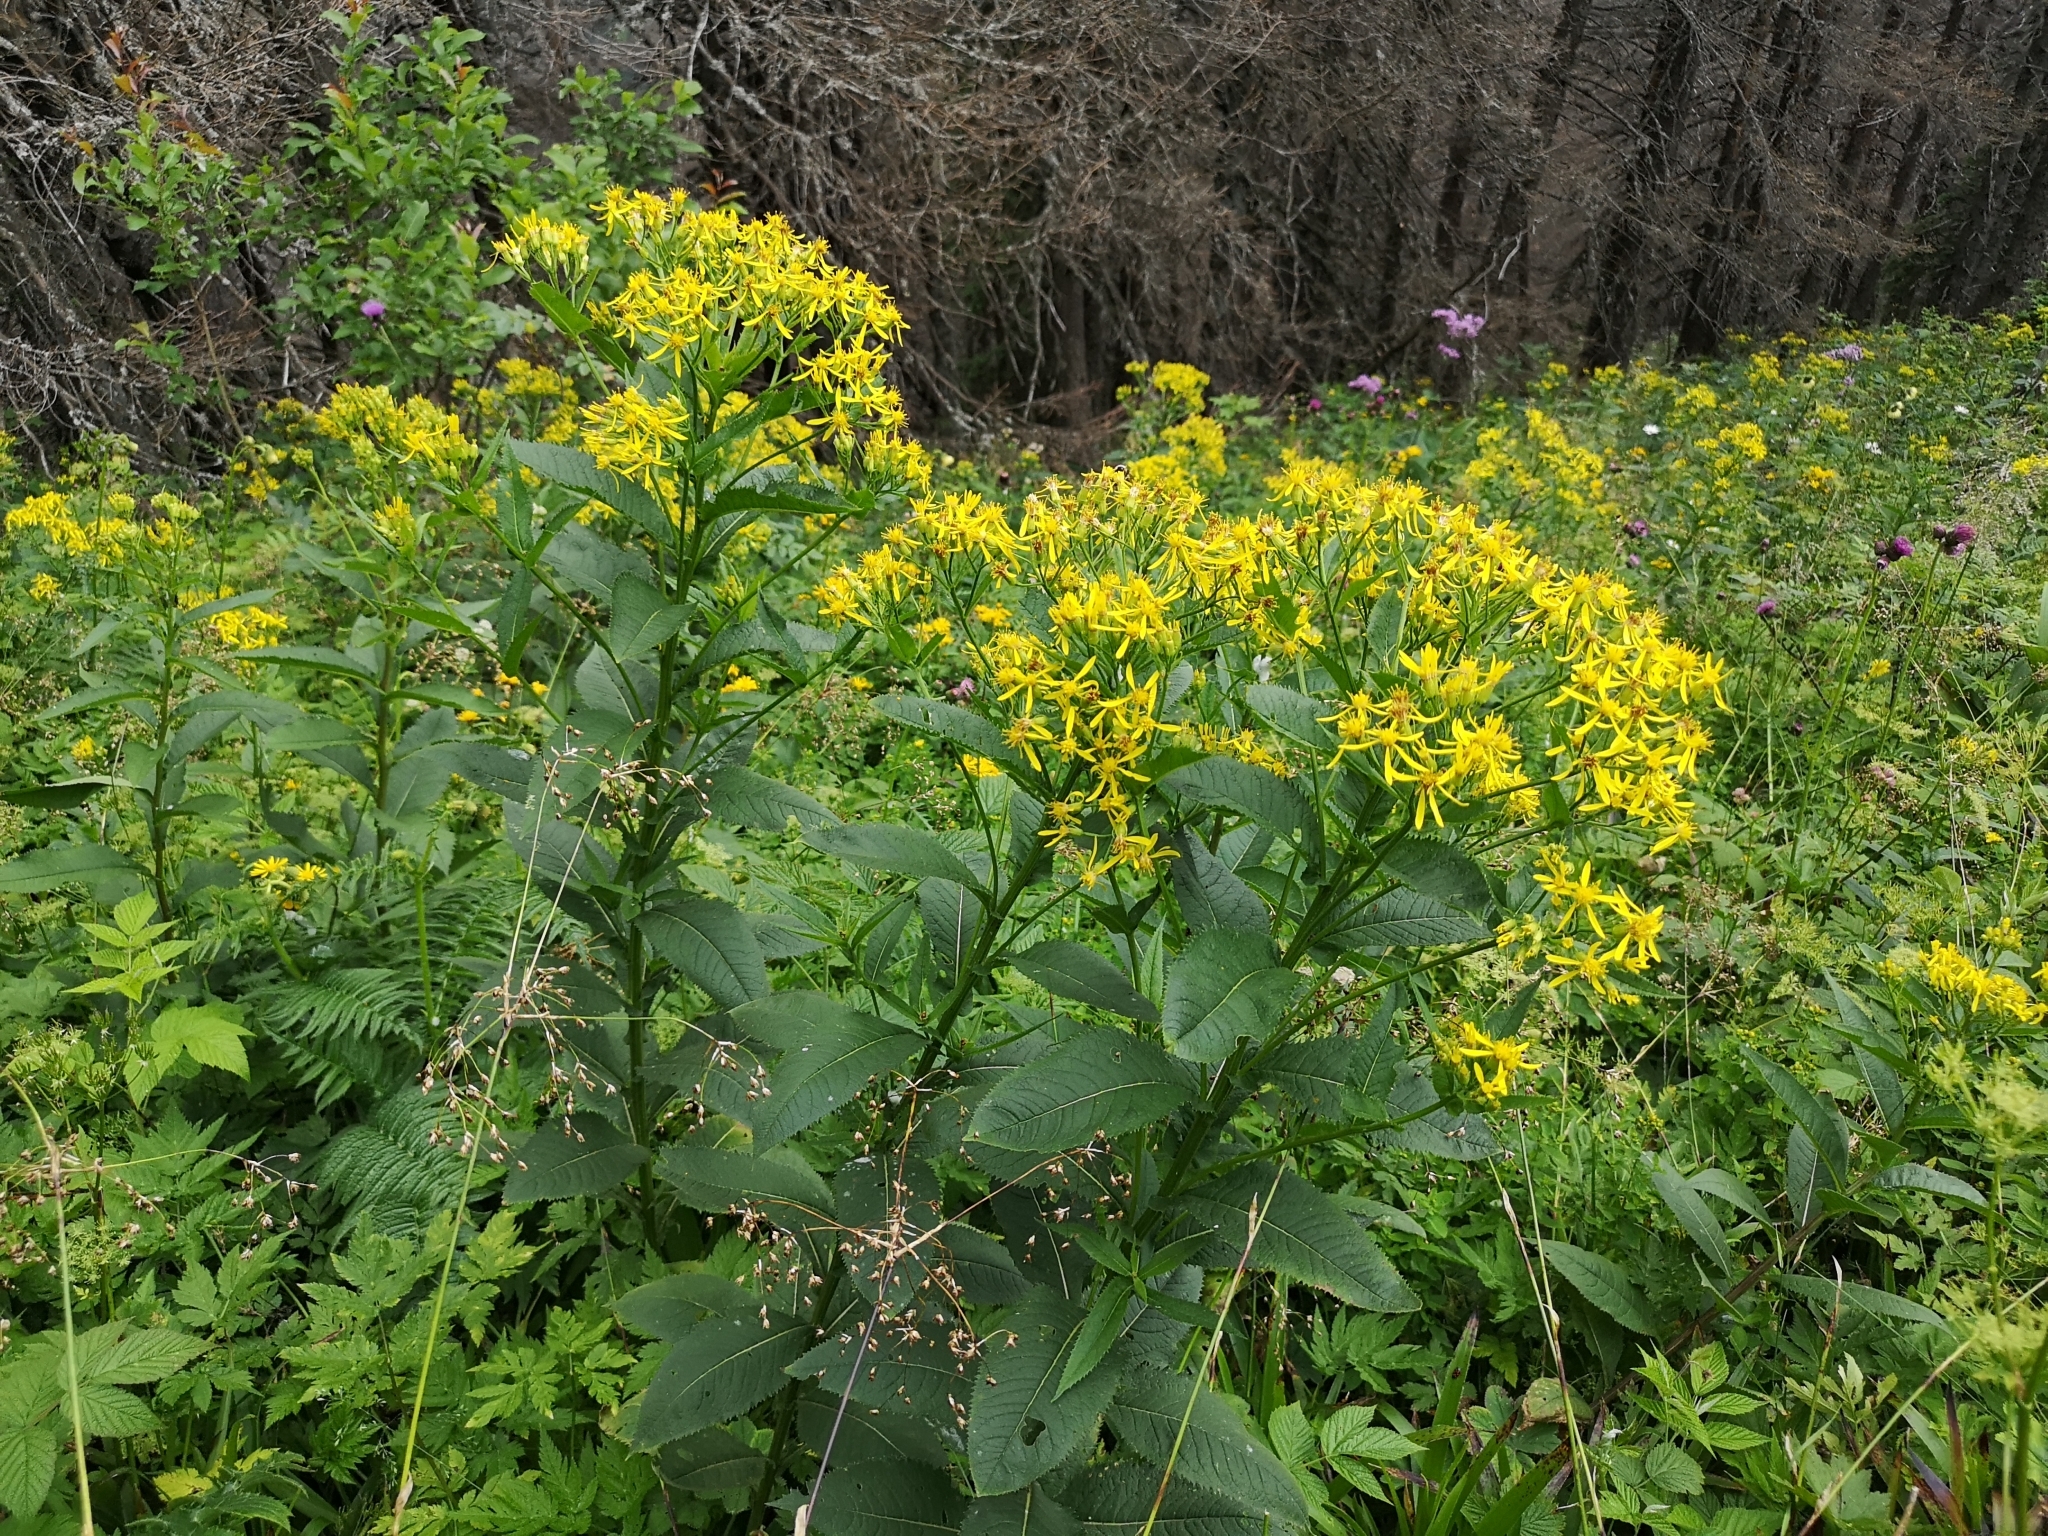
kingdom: Plantae
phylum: Tracheophyta
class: Magnoliopsida
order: Asterales
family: Asteraceae
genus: Senecio
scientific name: Senecio hercynicus
